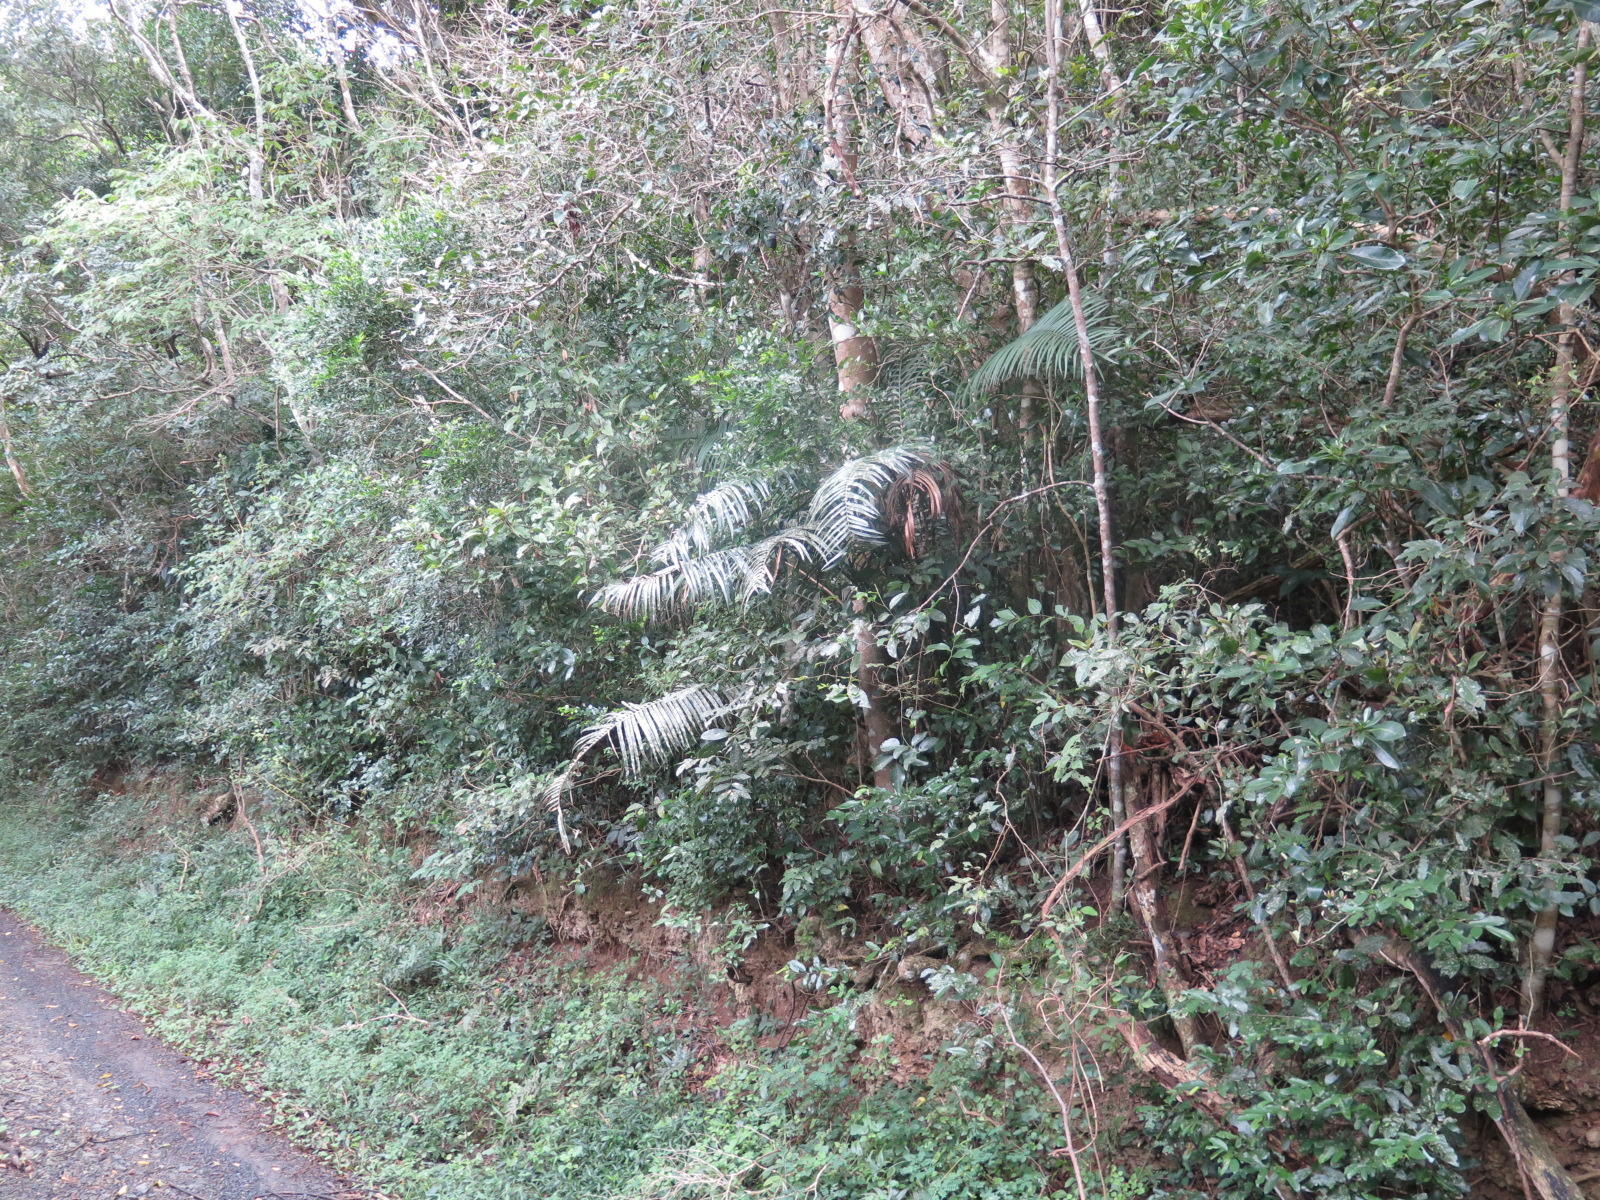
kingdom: Plantae
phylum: Tracheophyta
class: Cycadopsida
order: Cycadales
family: Zamiaceae
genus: Encephalartos
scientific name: Encephalartos villosus
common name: Poor man's cycad
